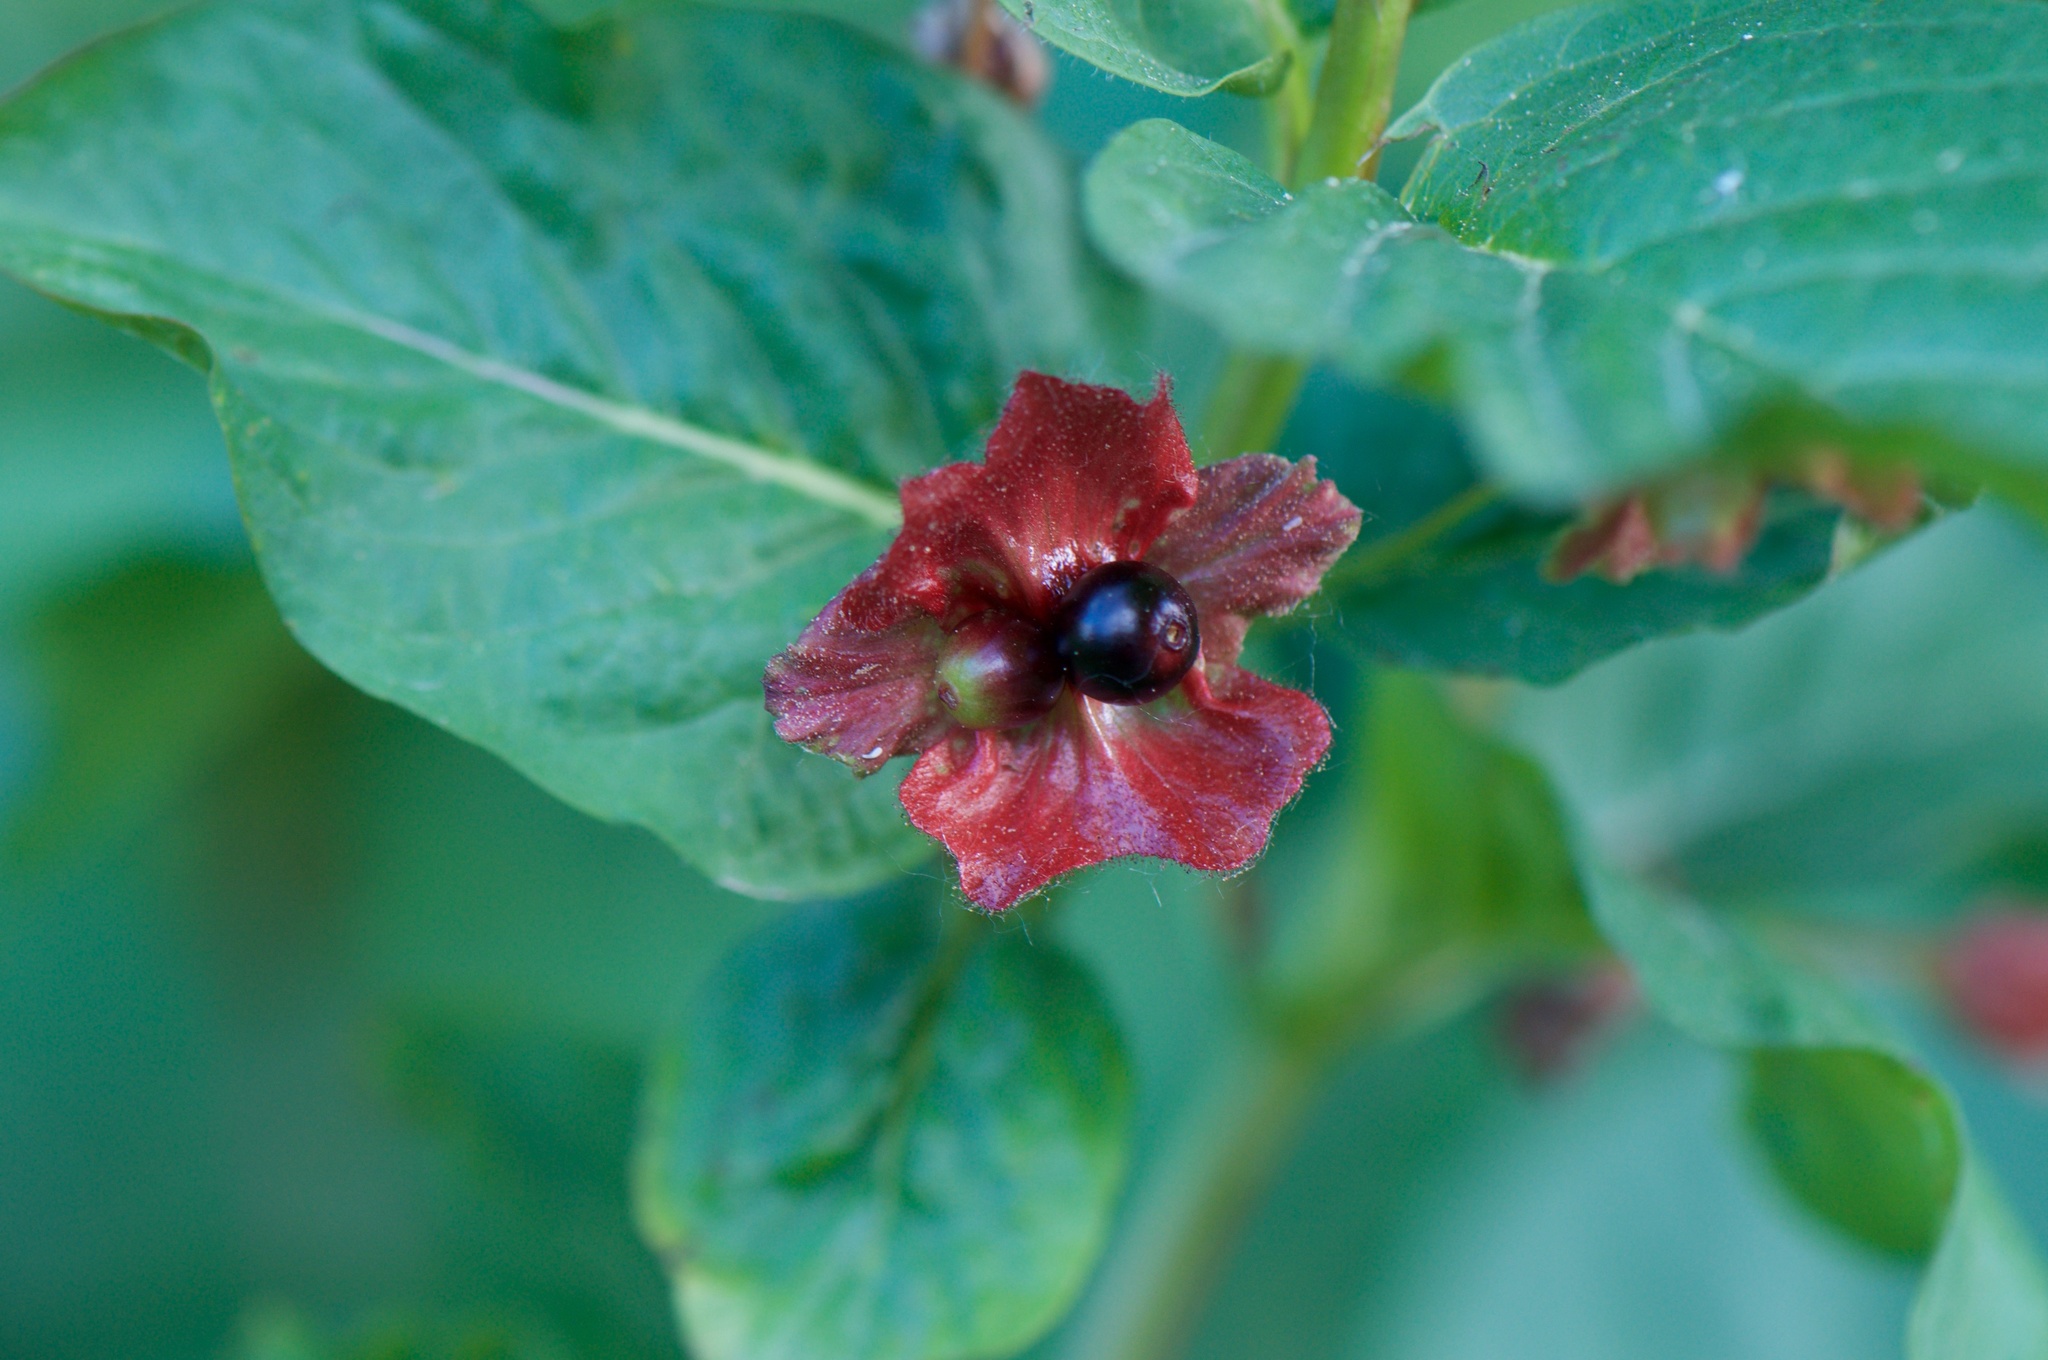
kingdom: Plantae
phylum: Tracheophyta
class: Magnoliopsida
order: Dipsacales
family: Caprifoliaceae
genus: Lonicera
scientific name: Lonicera involucrata
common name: Californian honeysuckle
